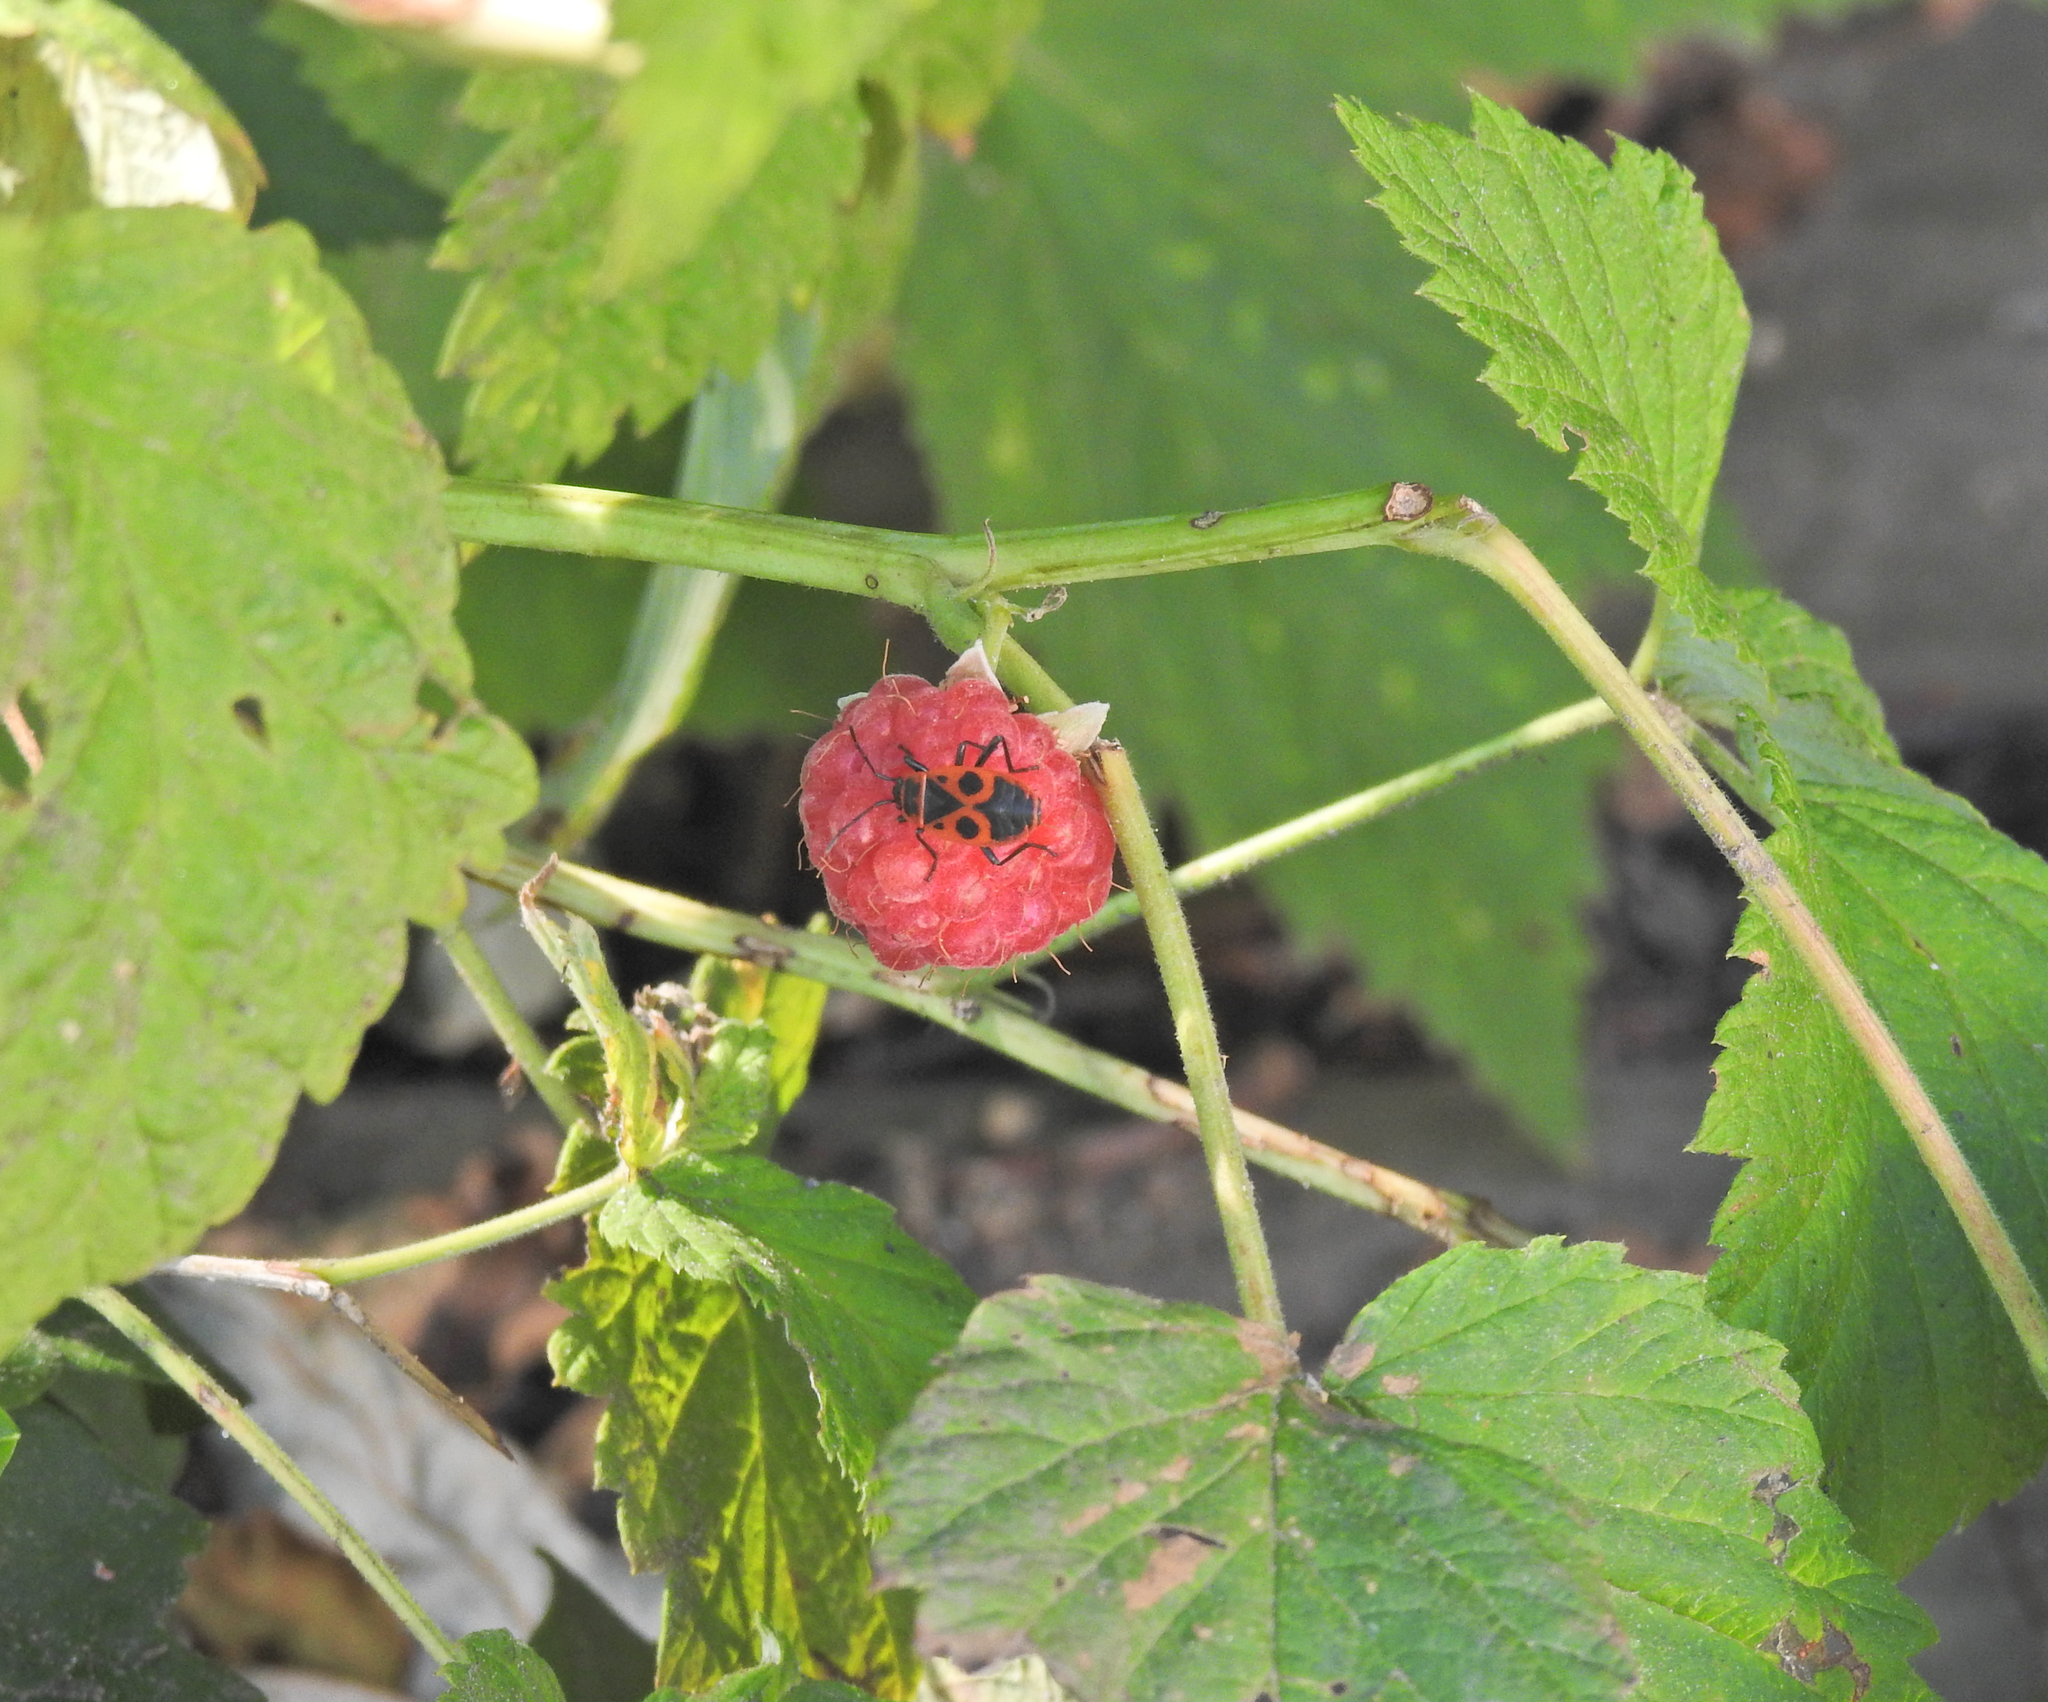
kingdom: Animalia
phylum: Arthropoda
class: Insecta
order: Hemiptera
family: Pyrrhocoridae
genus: Pyrrhocoris
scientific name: Pyrrhocoris apterus
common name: Firebug
